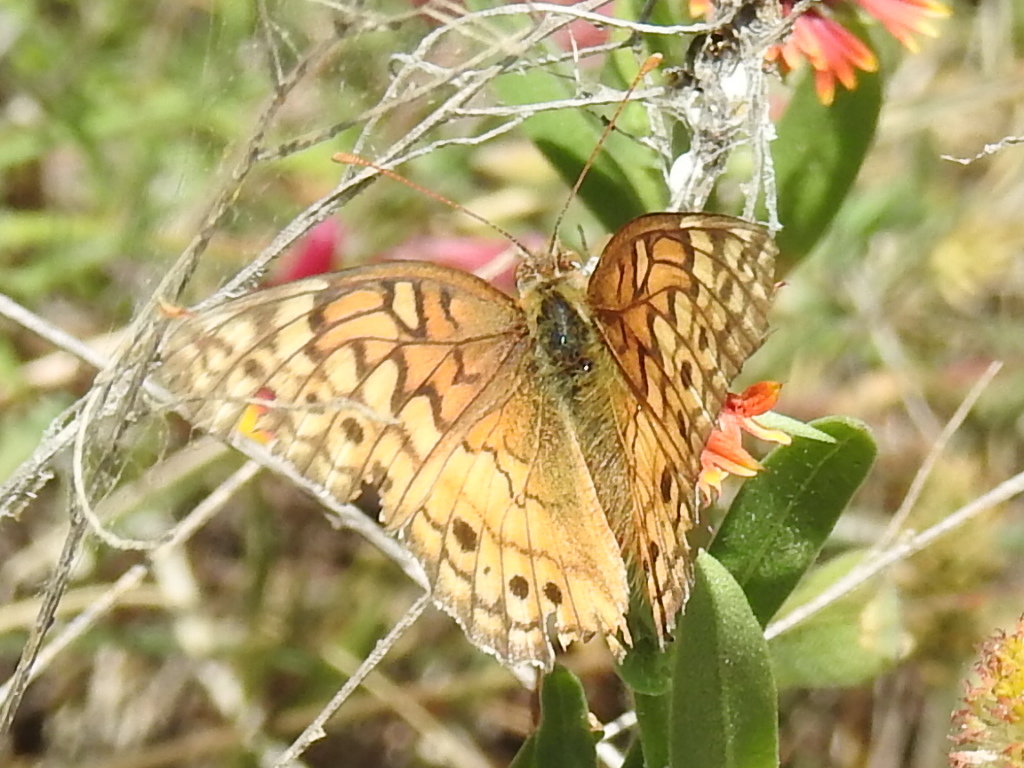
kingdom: Animalia
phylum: Arthropoda
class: Insecta
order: Lepidoptera
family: Nymphalidae
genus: Euptoieta
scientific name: Euptoieta claudia
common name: Variegated fritillary
